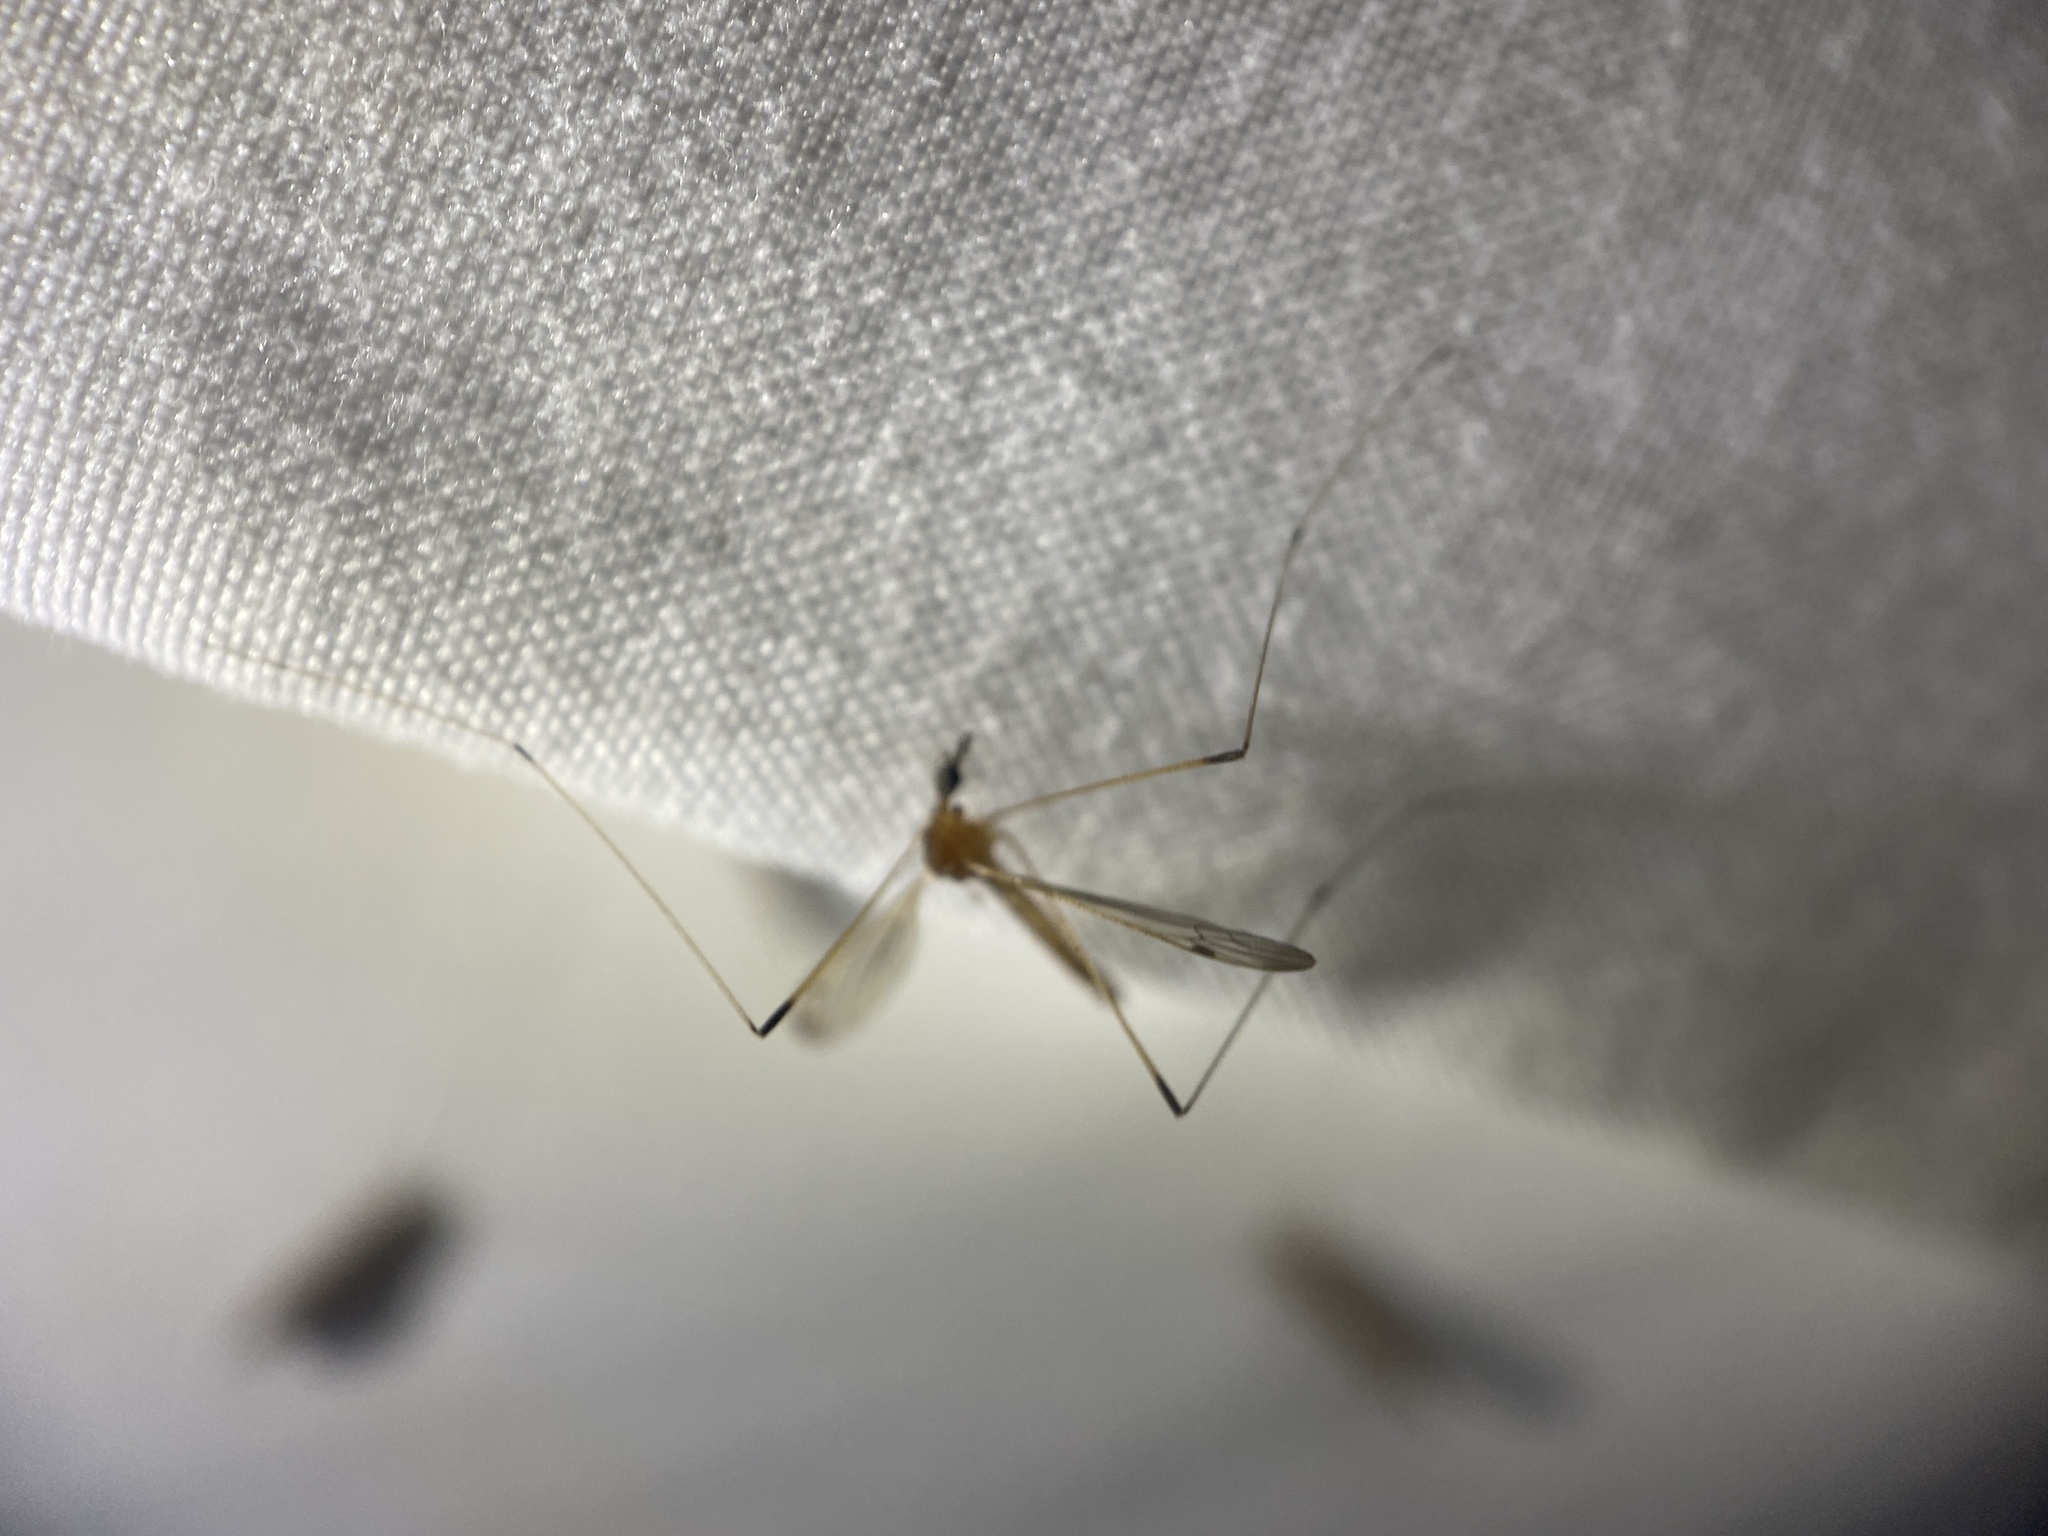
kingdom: Animalia
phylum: Arthropoda
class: Insecta
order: Diptera
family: Limoniidae
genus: Helius
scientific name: Helius flavipes
